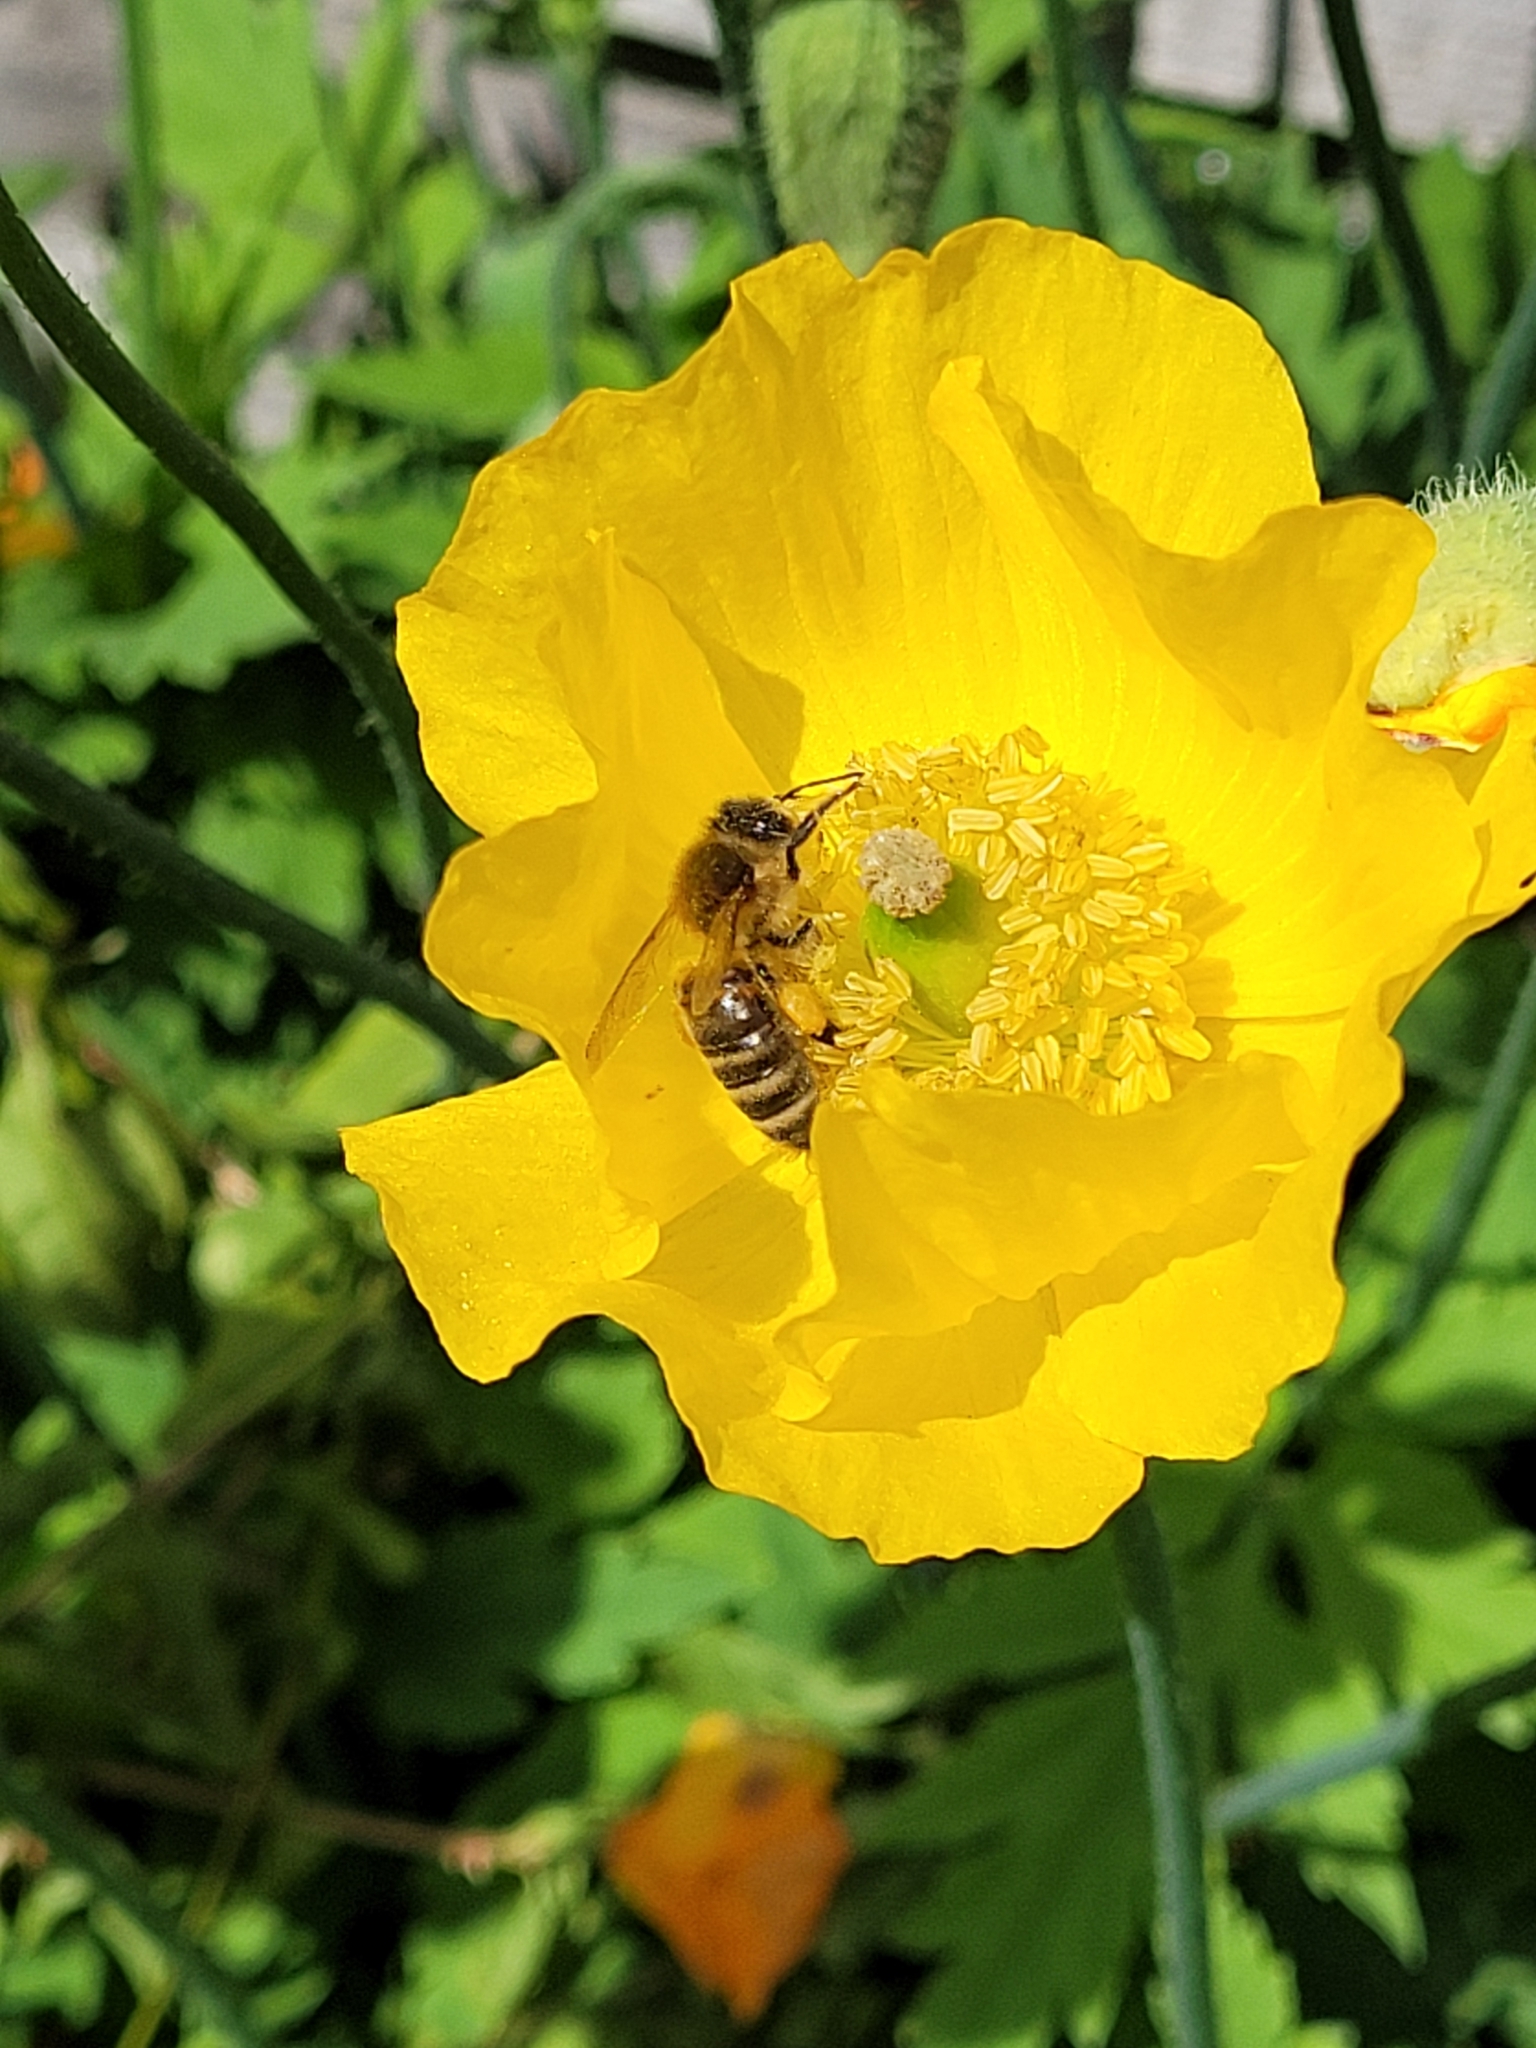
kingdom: Animalia
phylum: Arthropoda
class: Insecta
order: Hymenoptera
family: Apidae
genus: Apis
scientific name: Apis mellifera
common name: Honey bee
